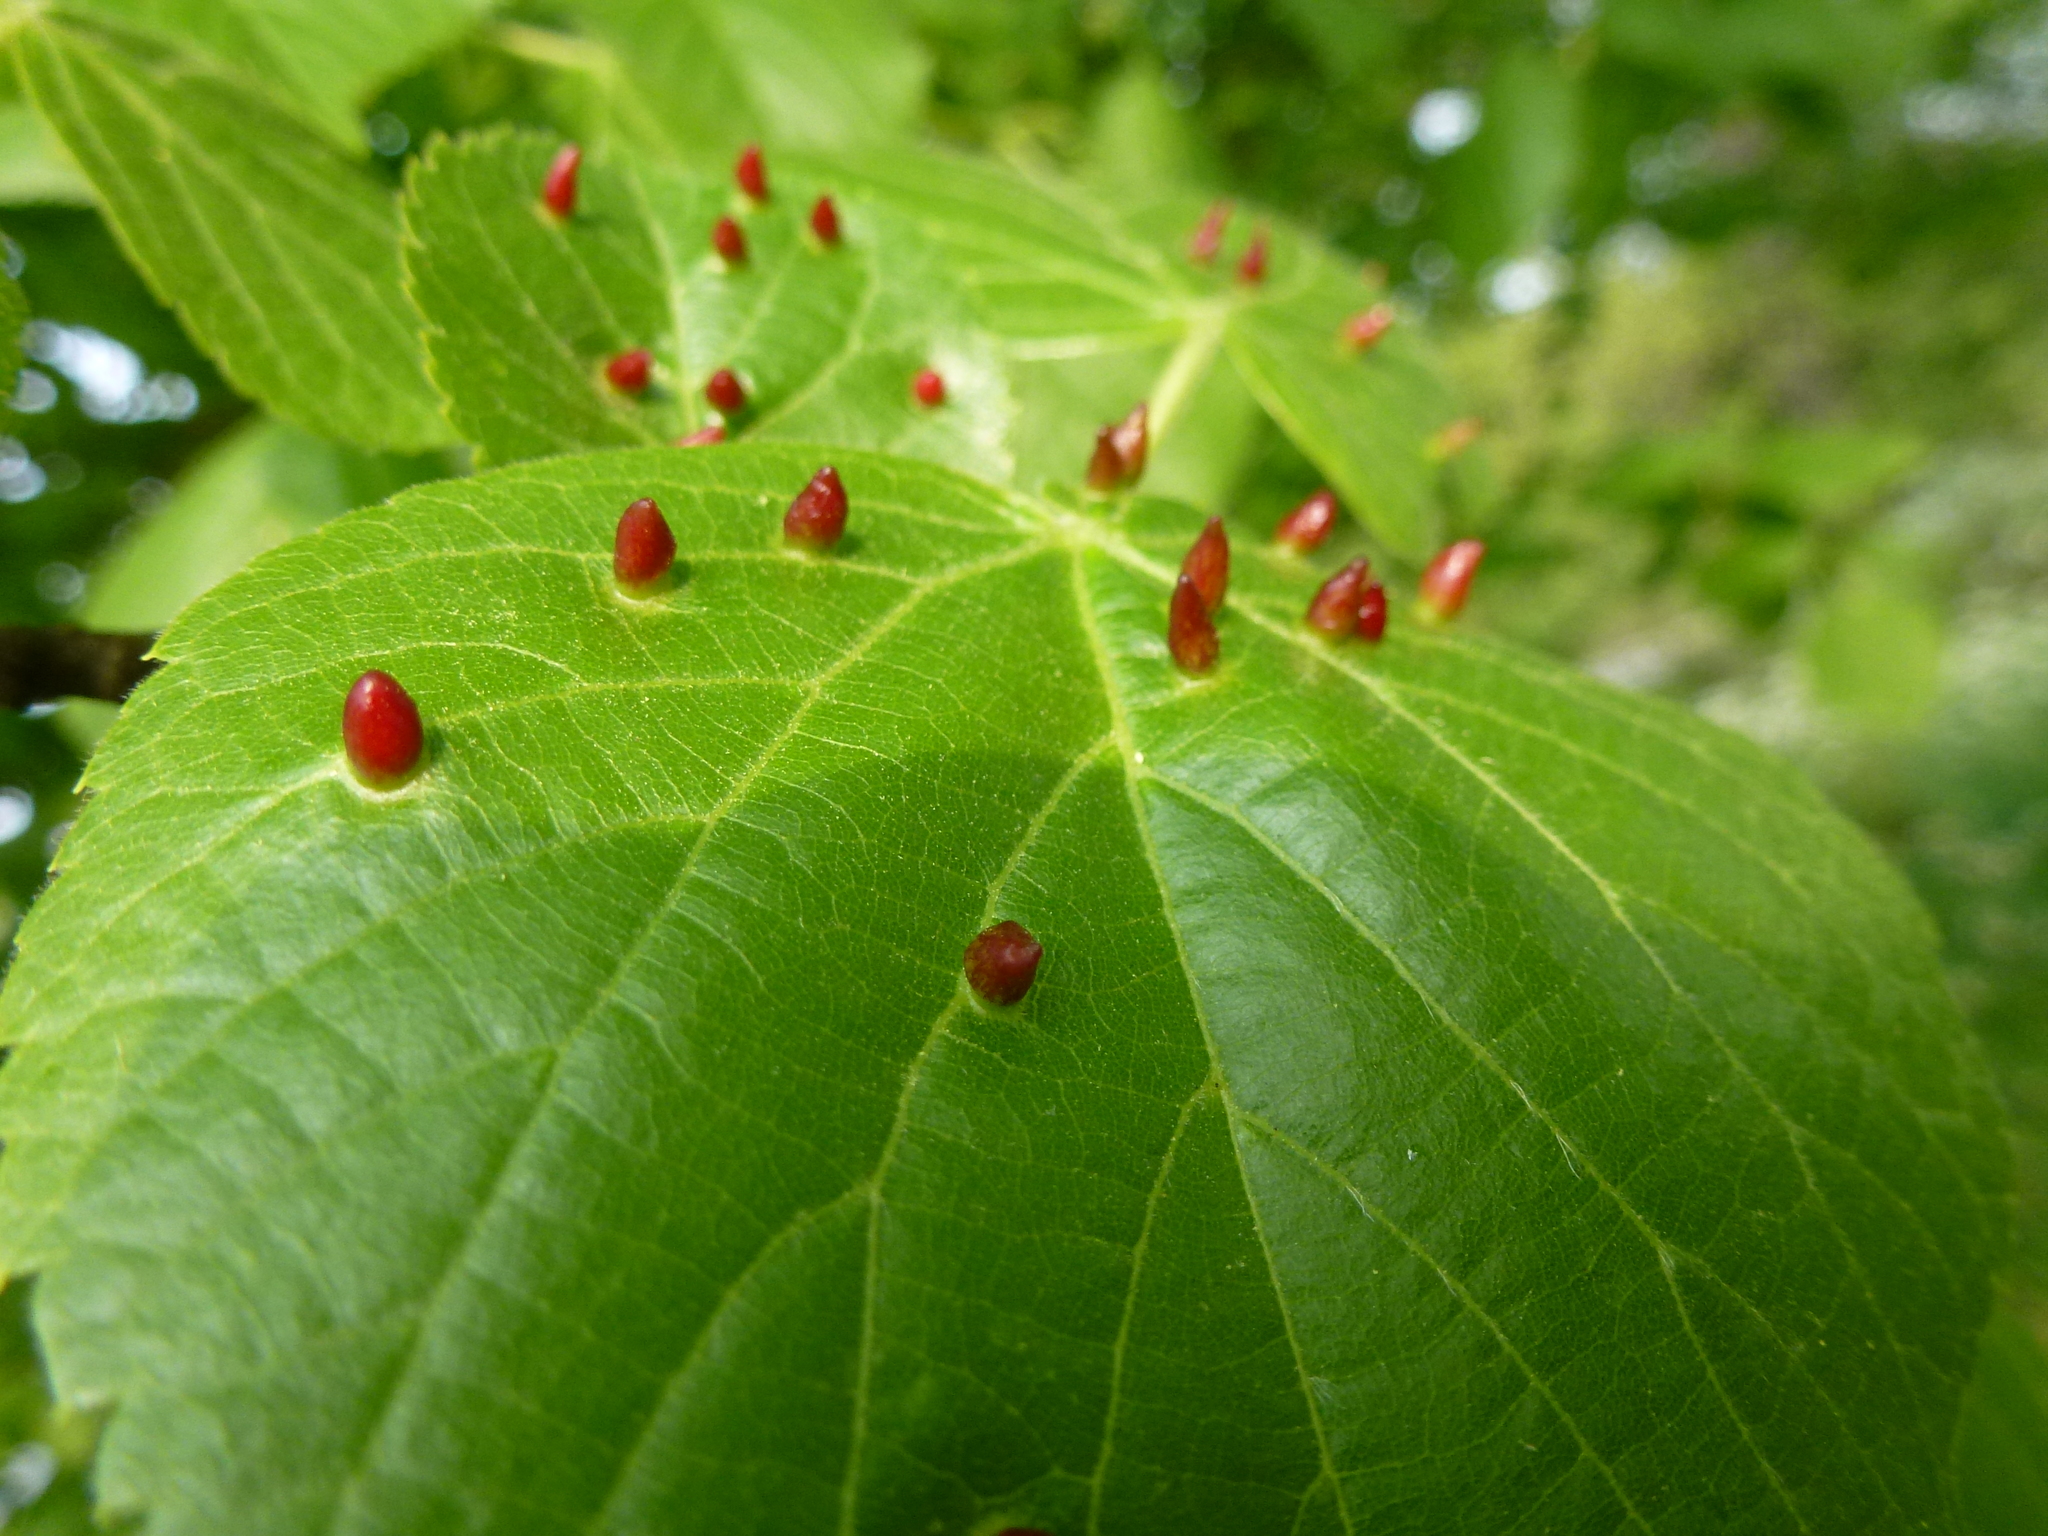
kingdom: Animalia
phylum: Arthropoda
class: Arachnida
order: Trombidiformes
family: Eriophyidae
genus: Eriophyes
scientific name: Eriophyes tiliae
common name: Red nail gall mite
